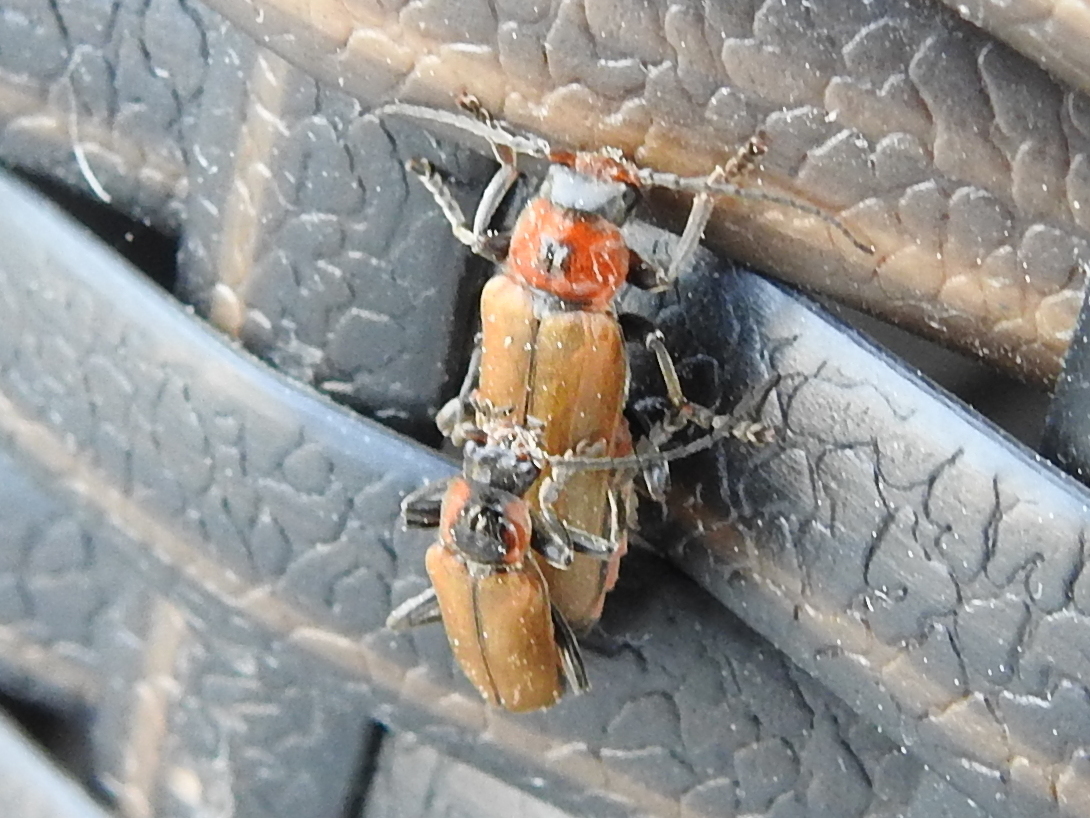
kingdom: Animalia
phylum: Arthropoda
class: Insecta
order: Coleoptera
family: Cantharidae
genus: Cantharis
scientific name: Cantharis quadripunctata
